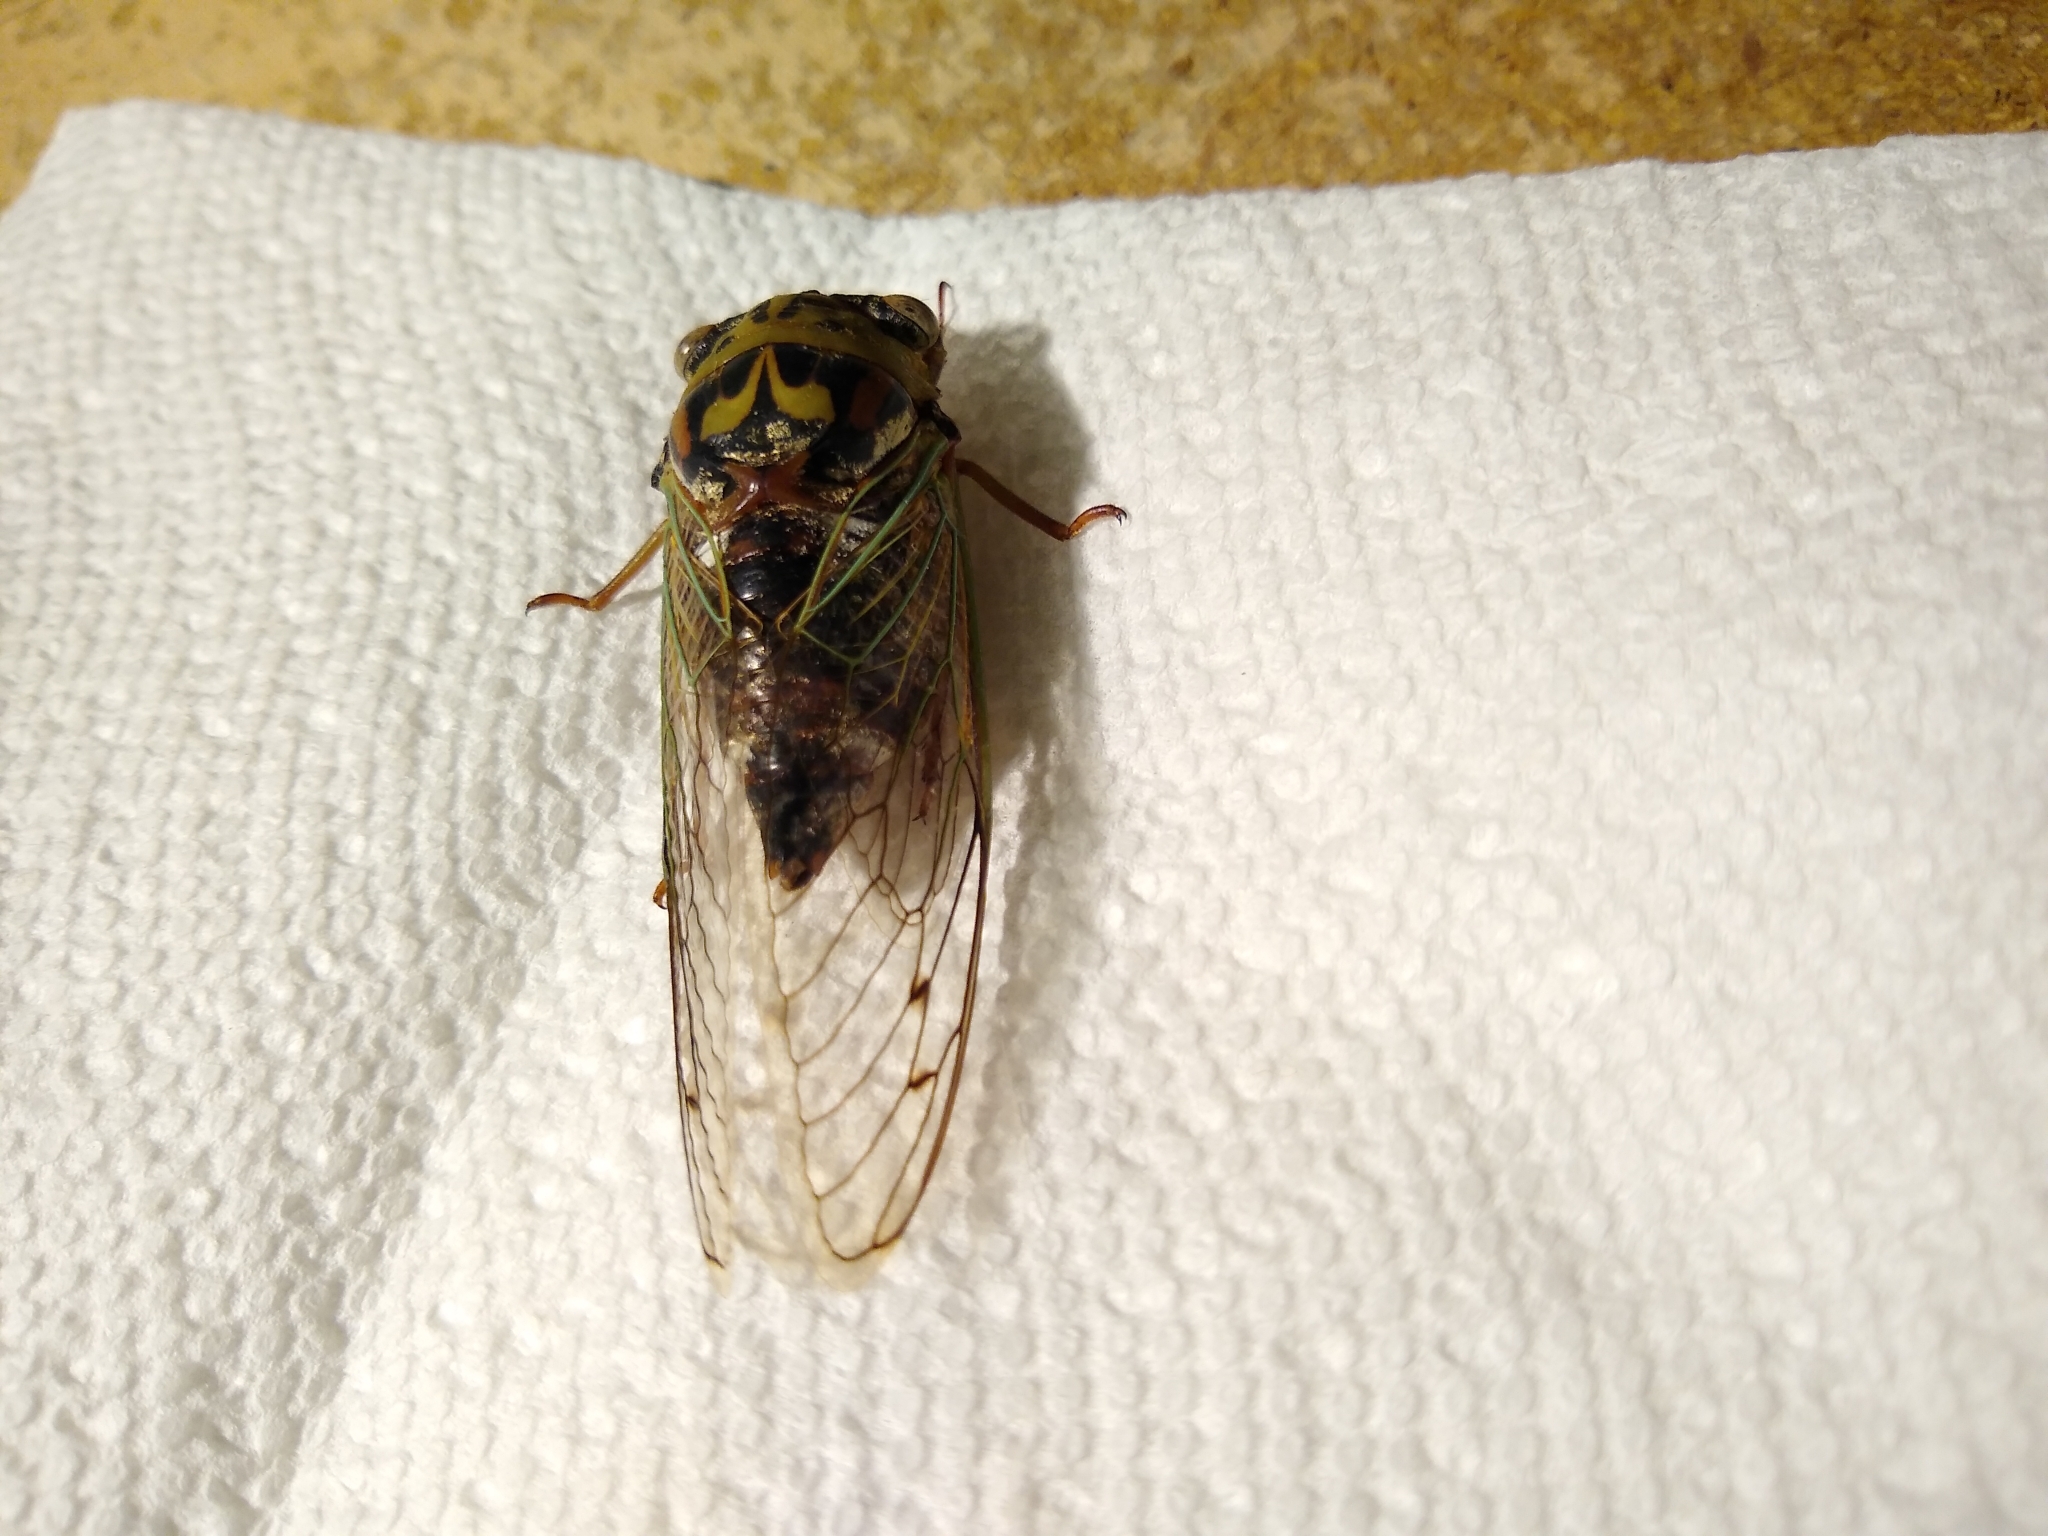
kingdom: Animalia
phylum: Arthropoda
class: Insecta
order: Hemiptera
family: Cicadidae
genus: Megatibicen
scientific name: Megatibicen resh
